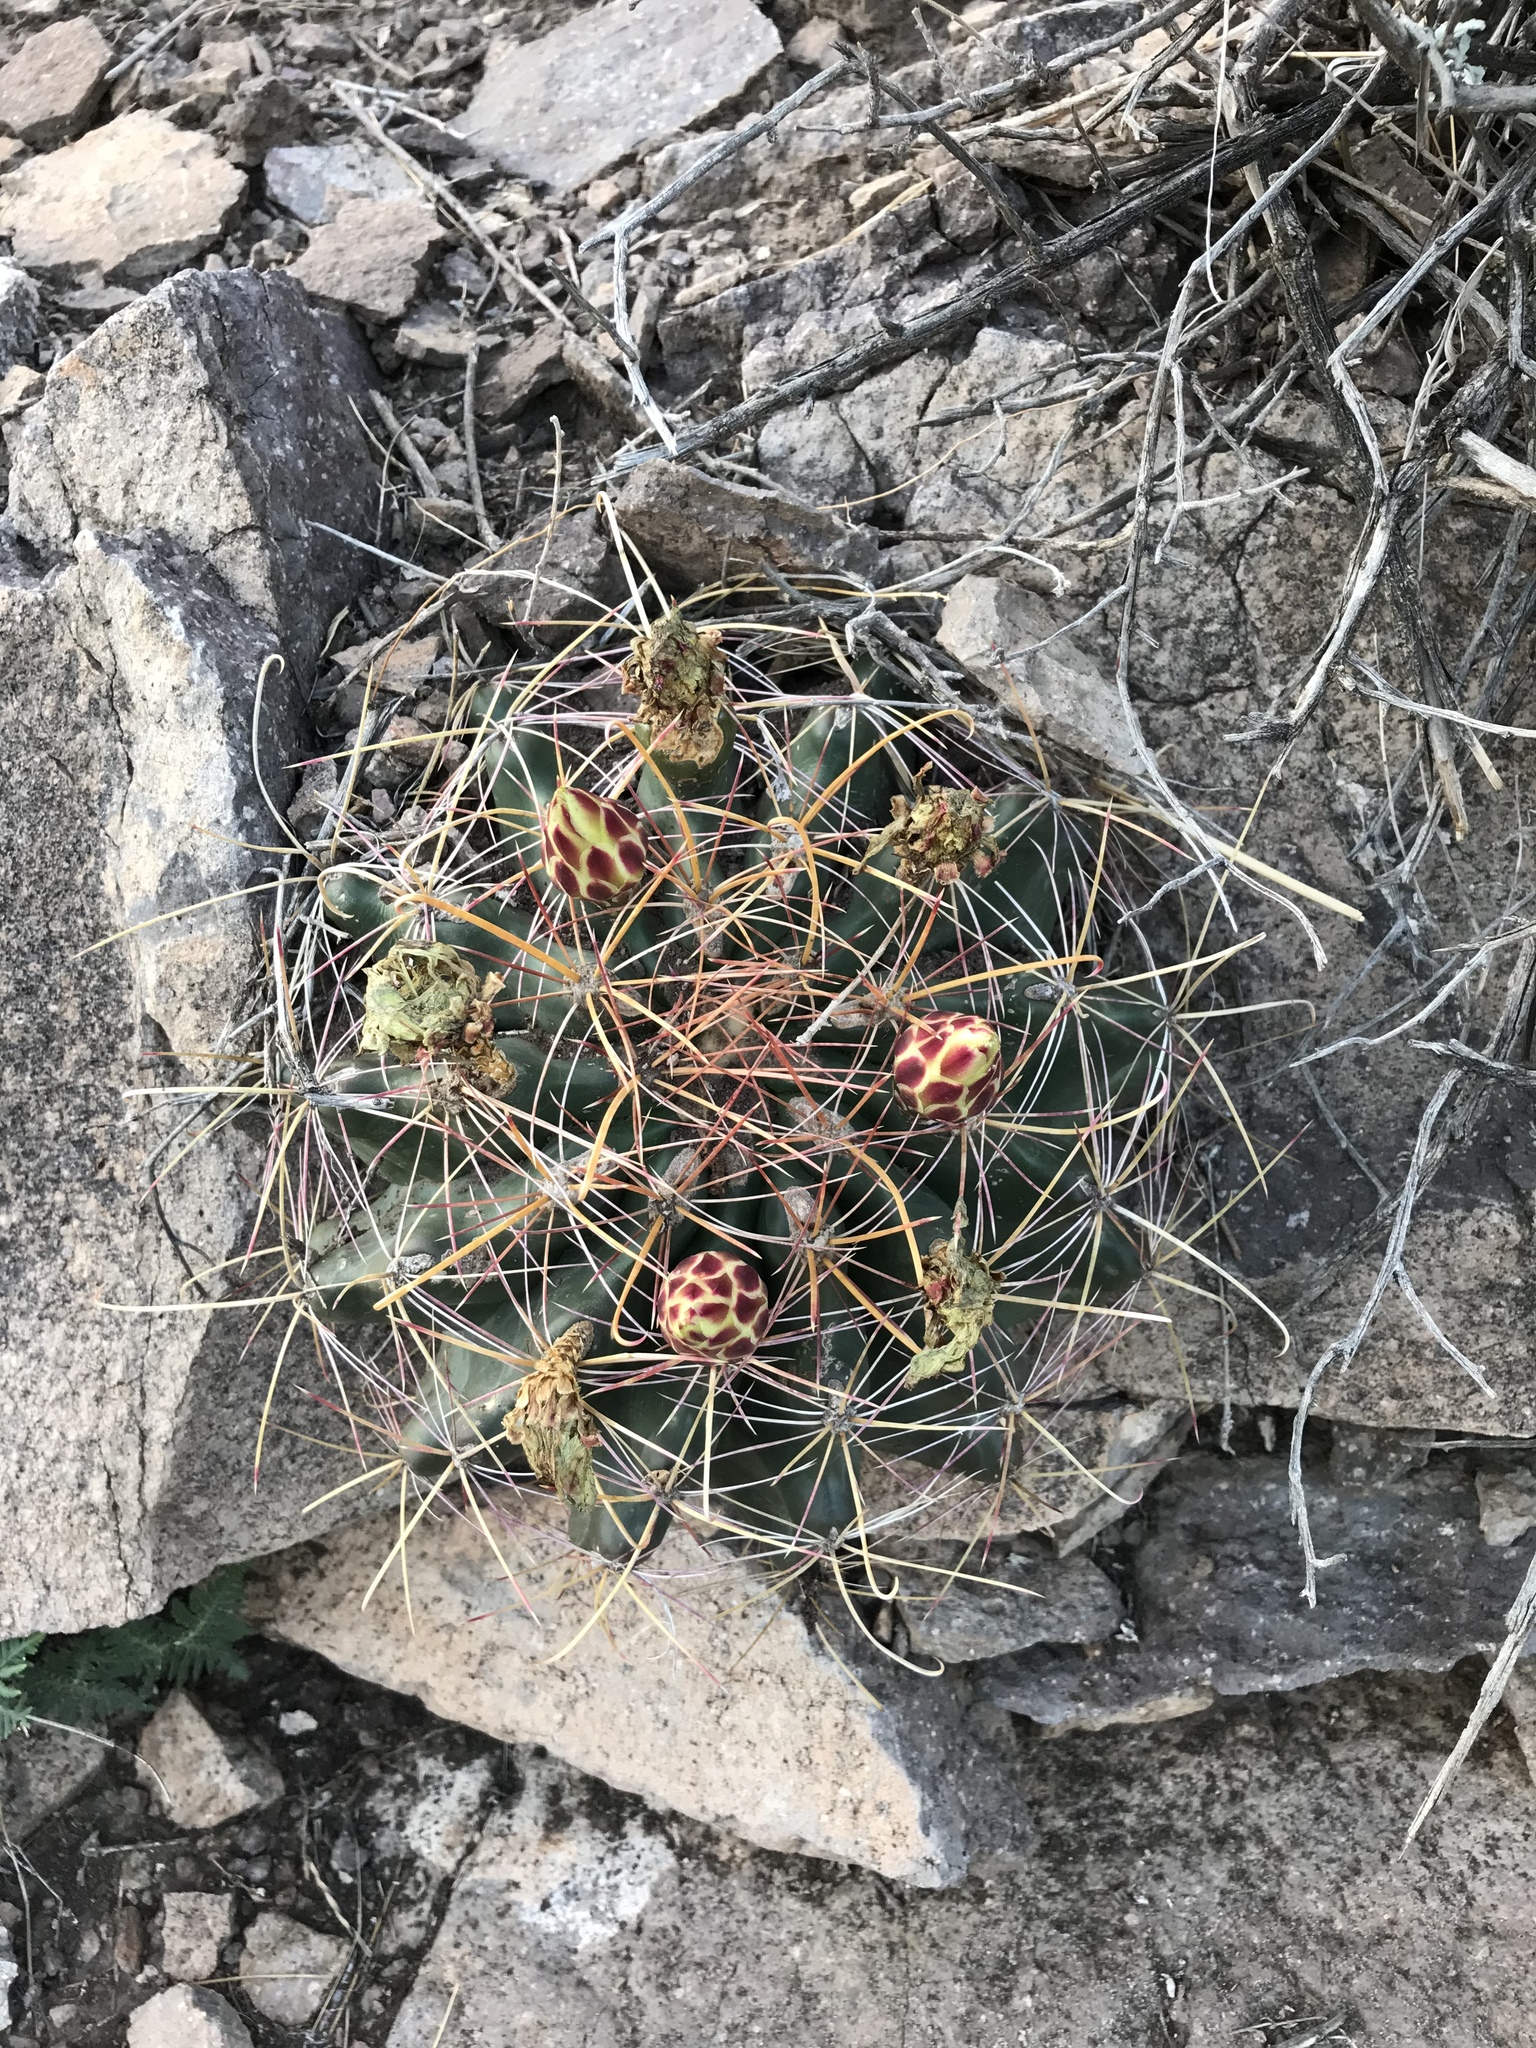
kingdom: Plantae
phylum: Tracheophyta
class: Magnoliopsida
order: Caryophyllales
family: Cactaceae
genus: Bisnaga
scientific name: Bisnaga hamatacantha
